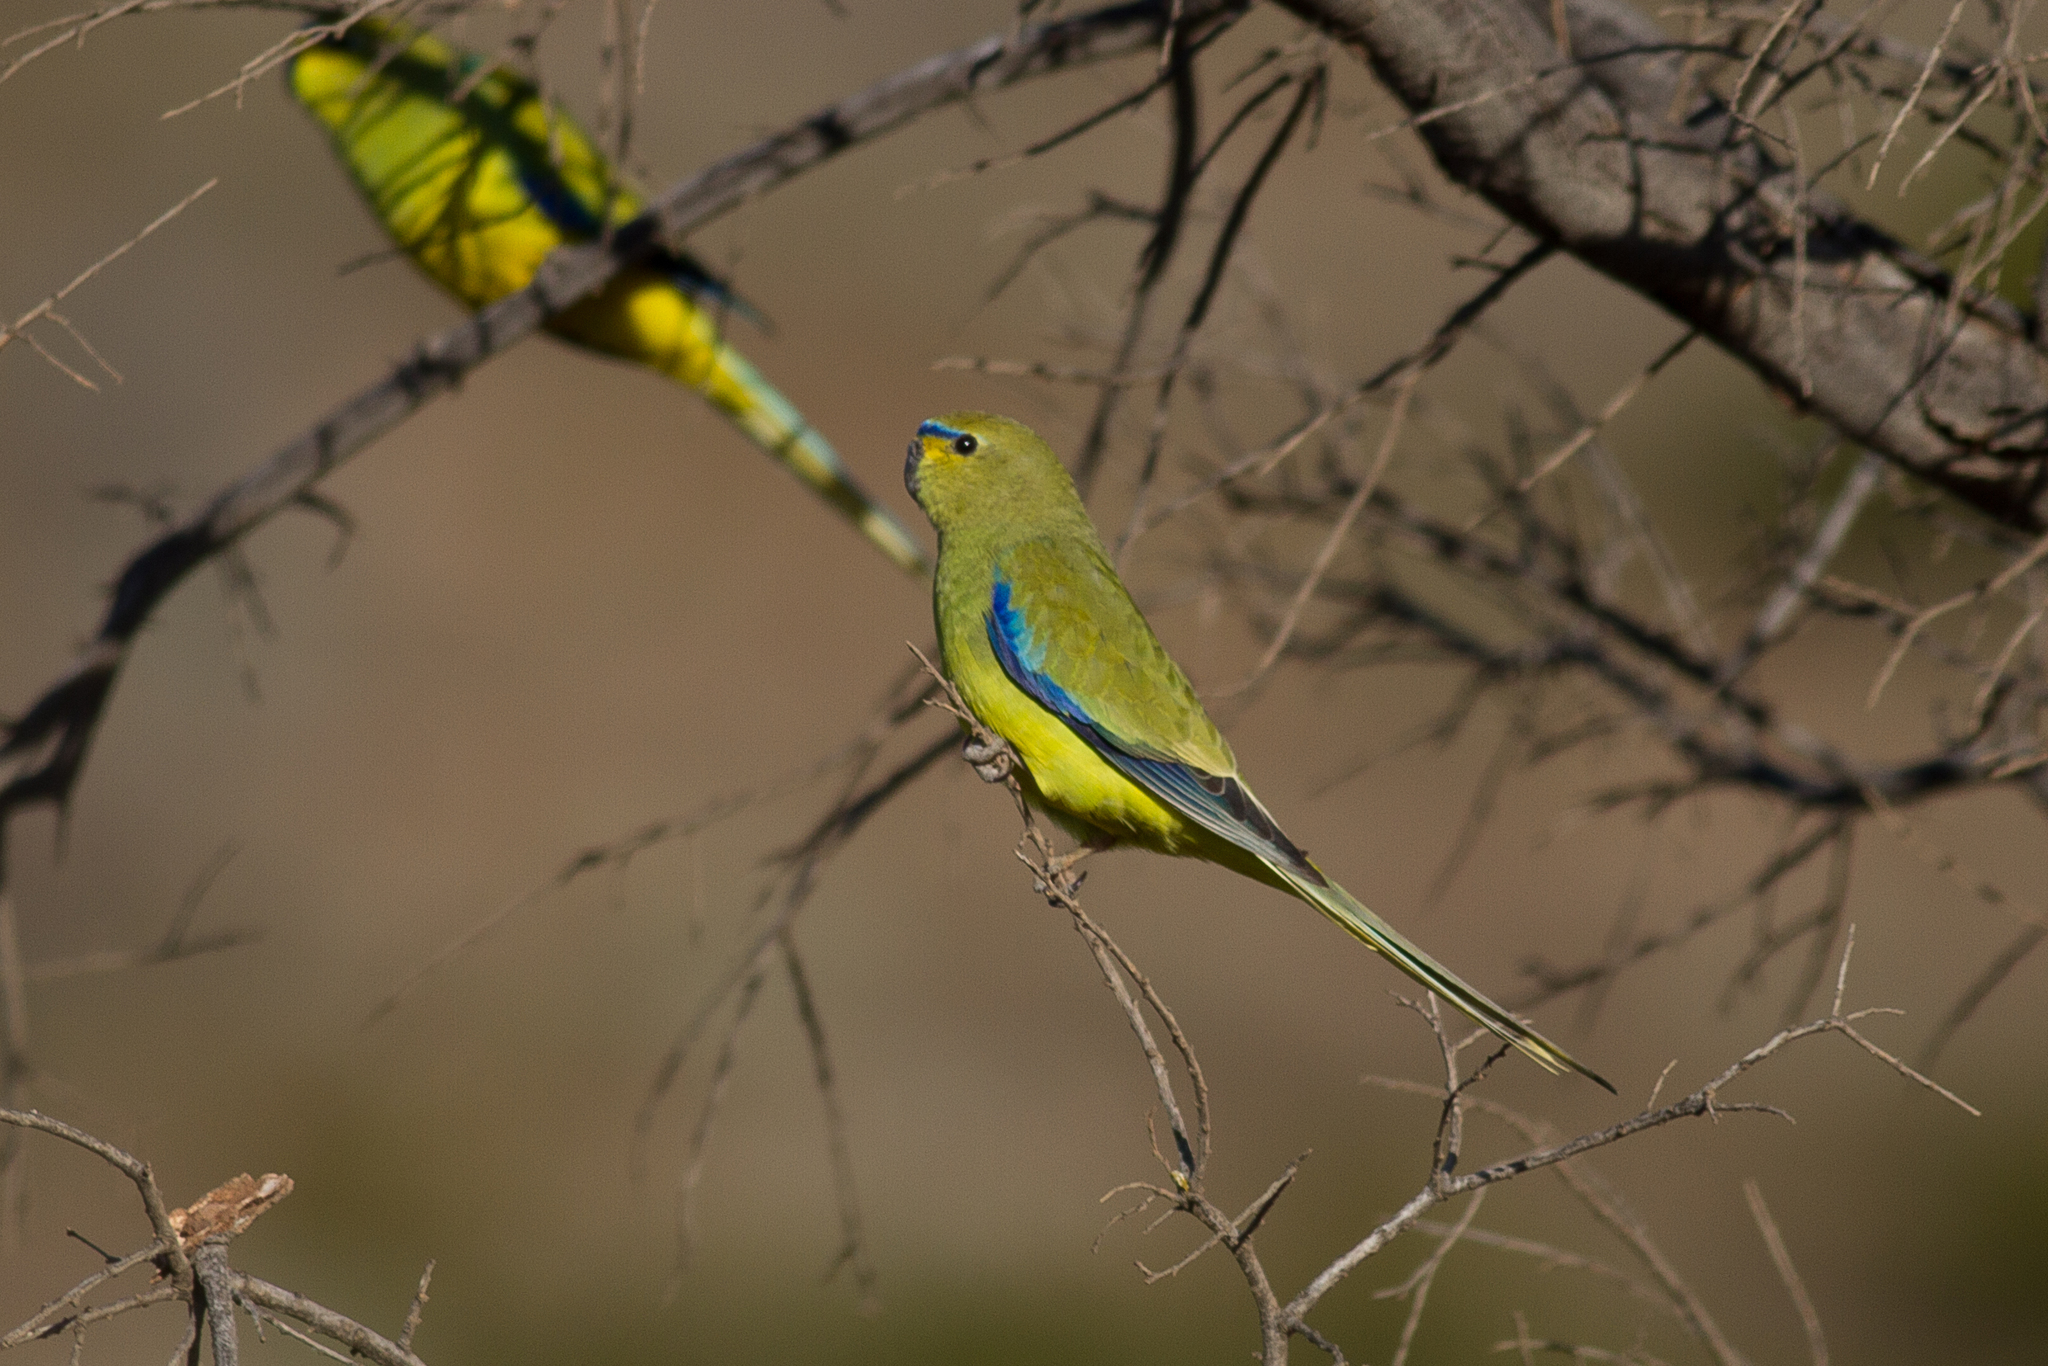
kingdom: Animalia
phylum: Chordata
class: Aves
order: Psittaciformes
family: Psittacidae
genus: Neophema
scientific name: Neophema elegans
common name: Elegant parrot
